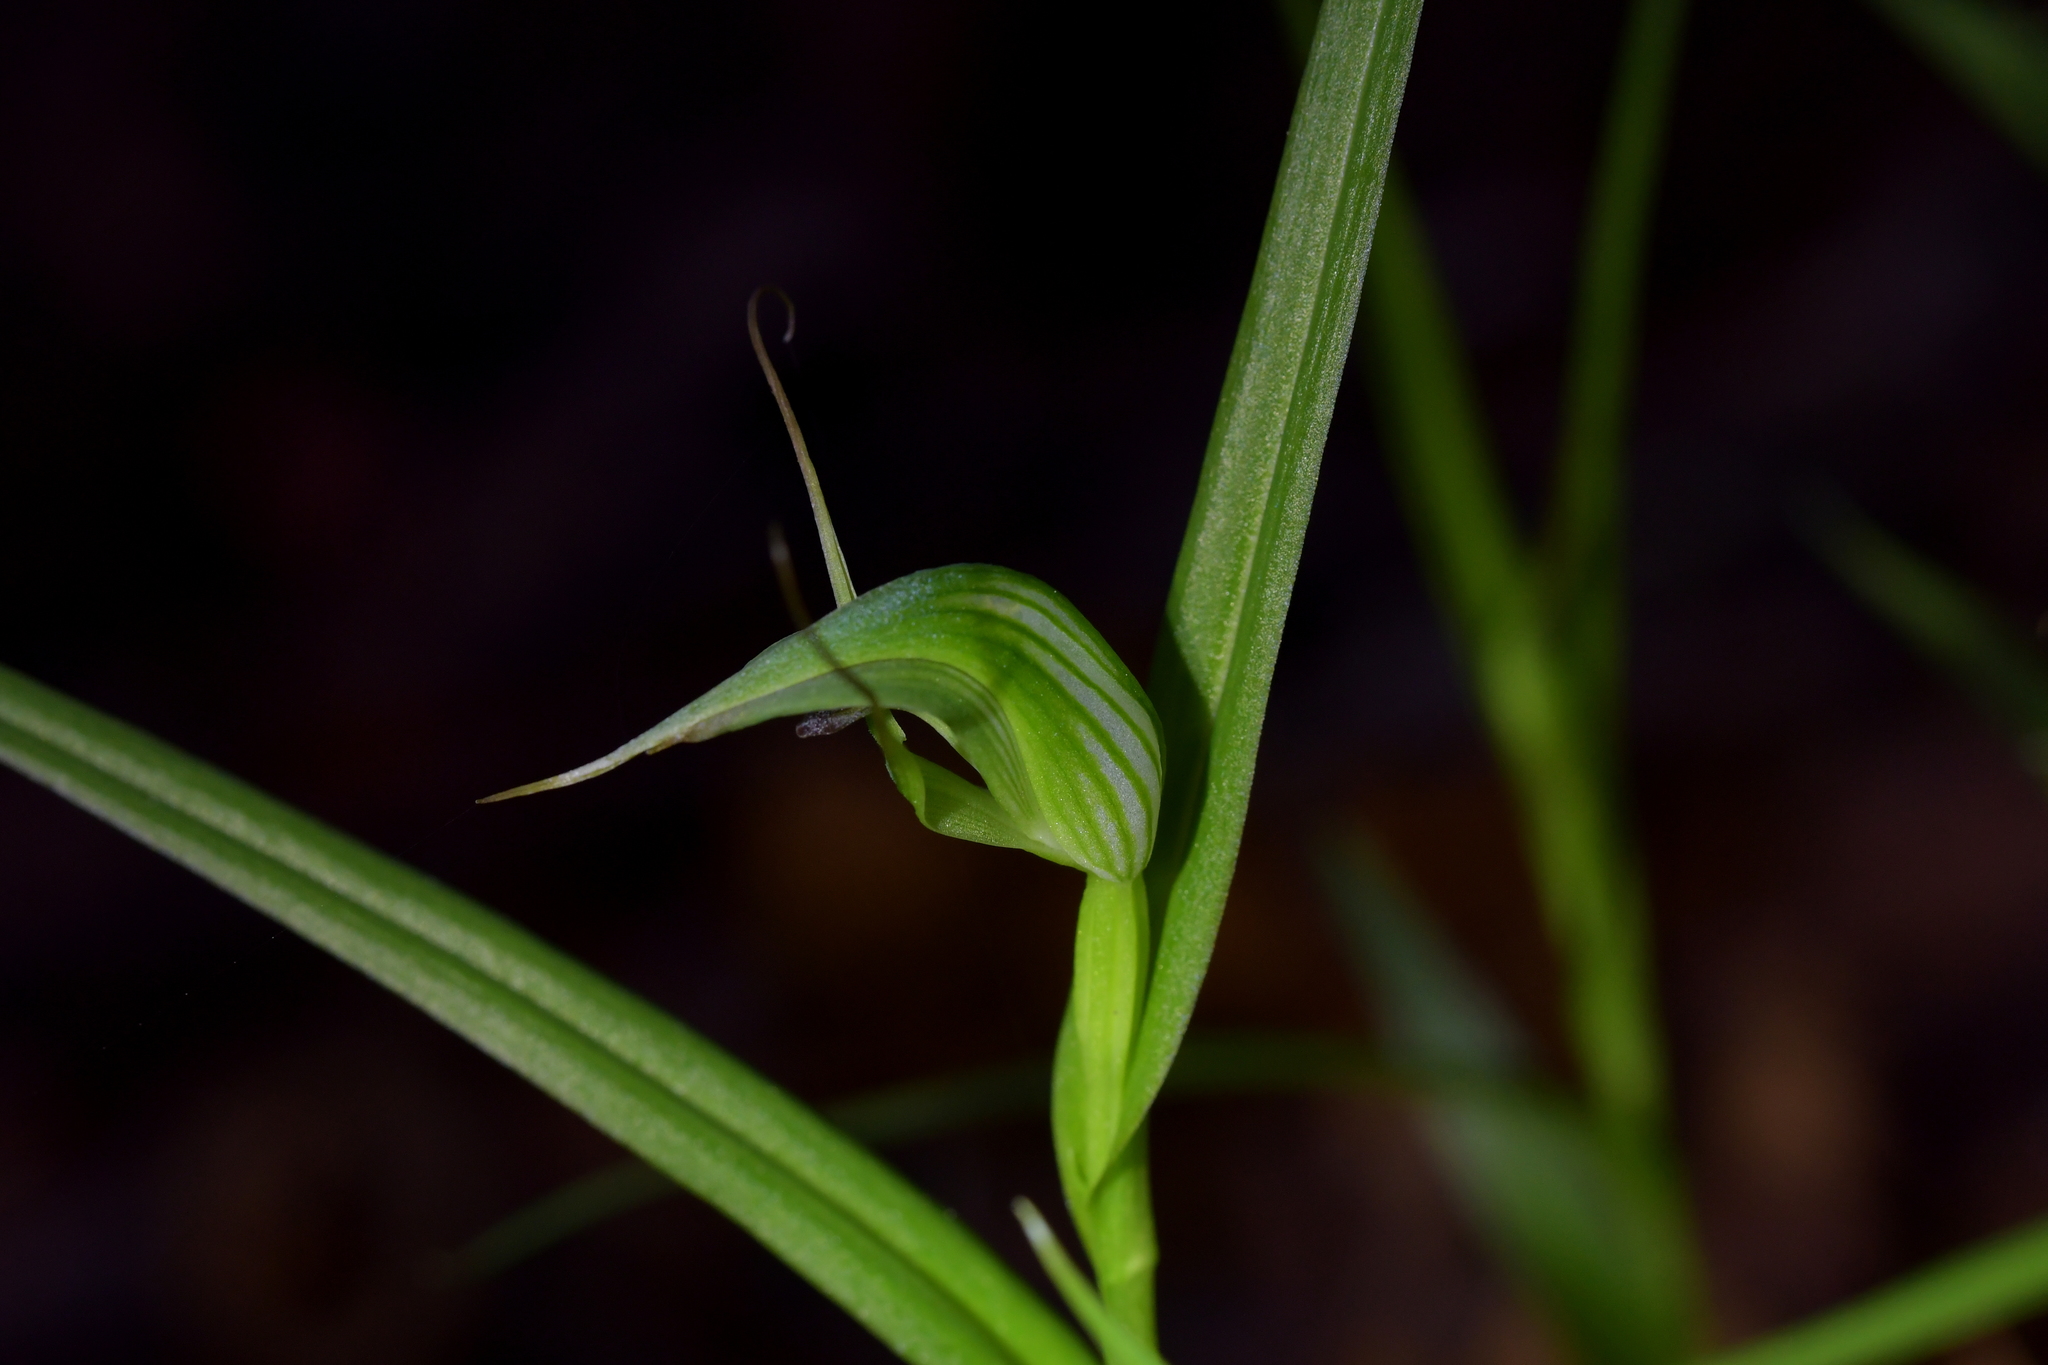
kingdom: Plantae
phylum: Tracheophyta
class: Liliopsida
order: Asparagales
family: Orchidaceae
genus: Pterostylis
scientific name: Pterostylis agathicola
